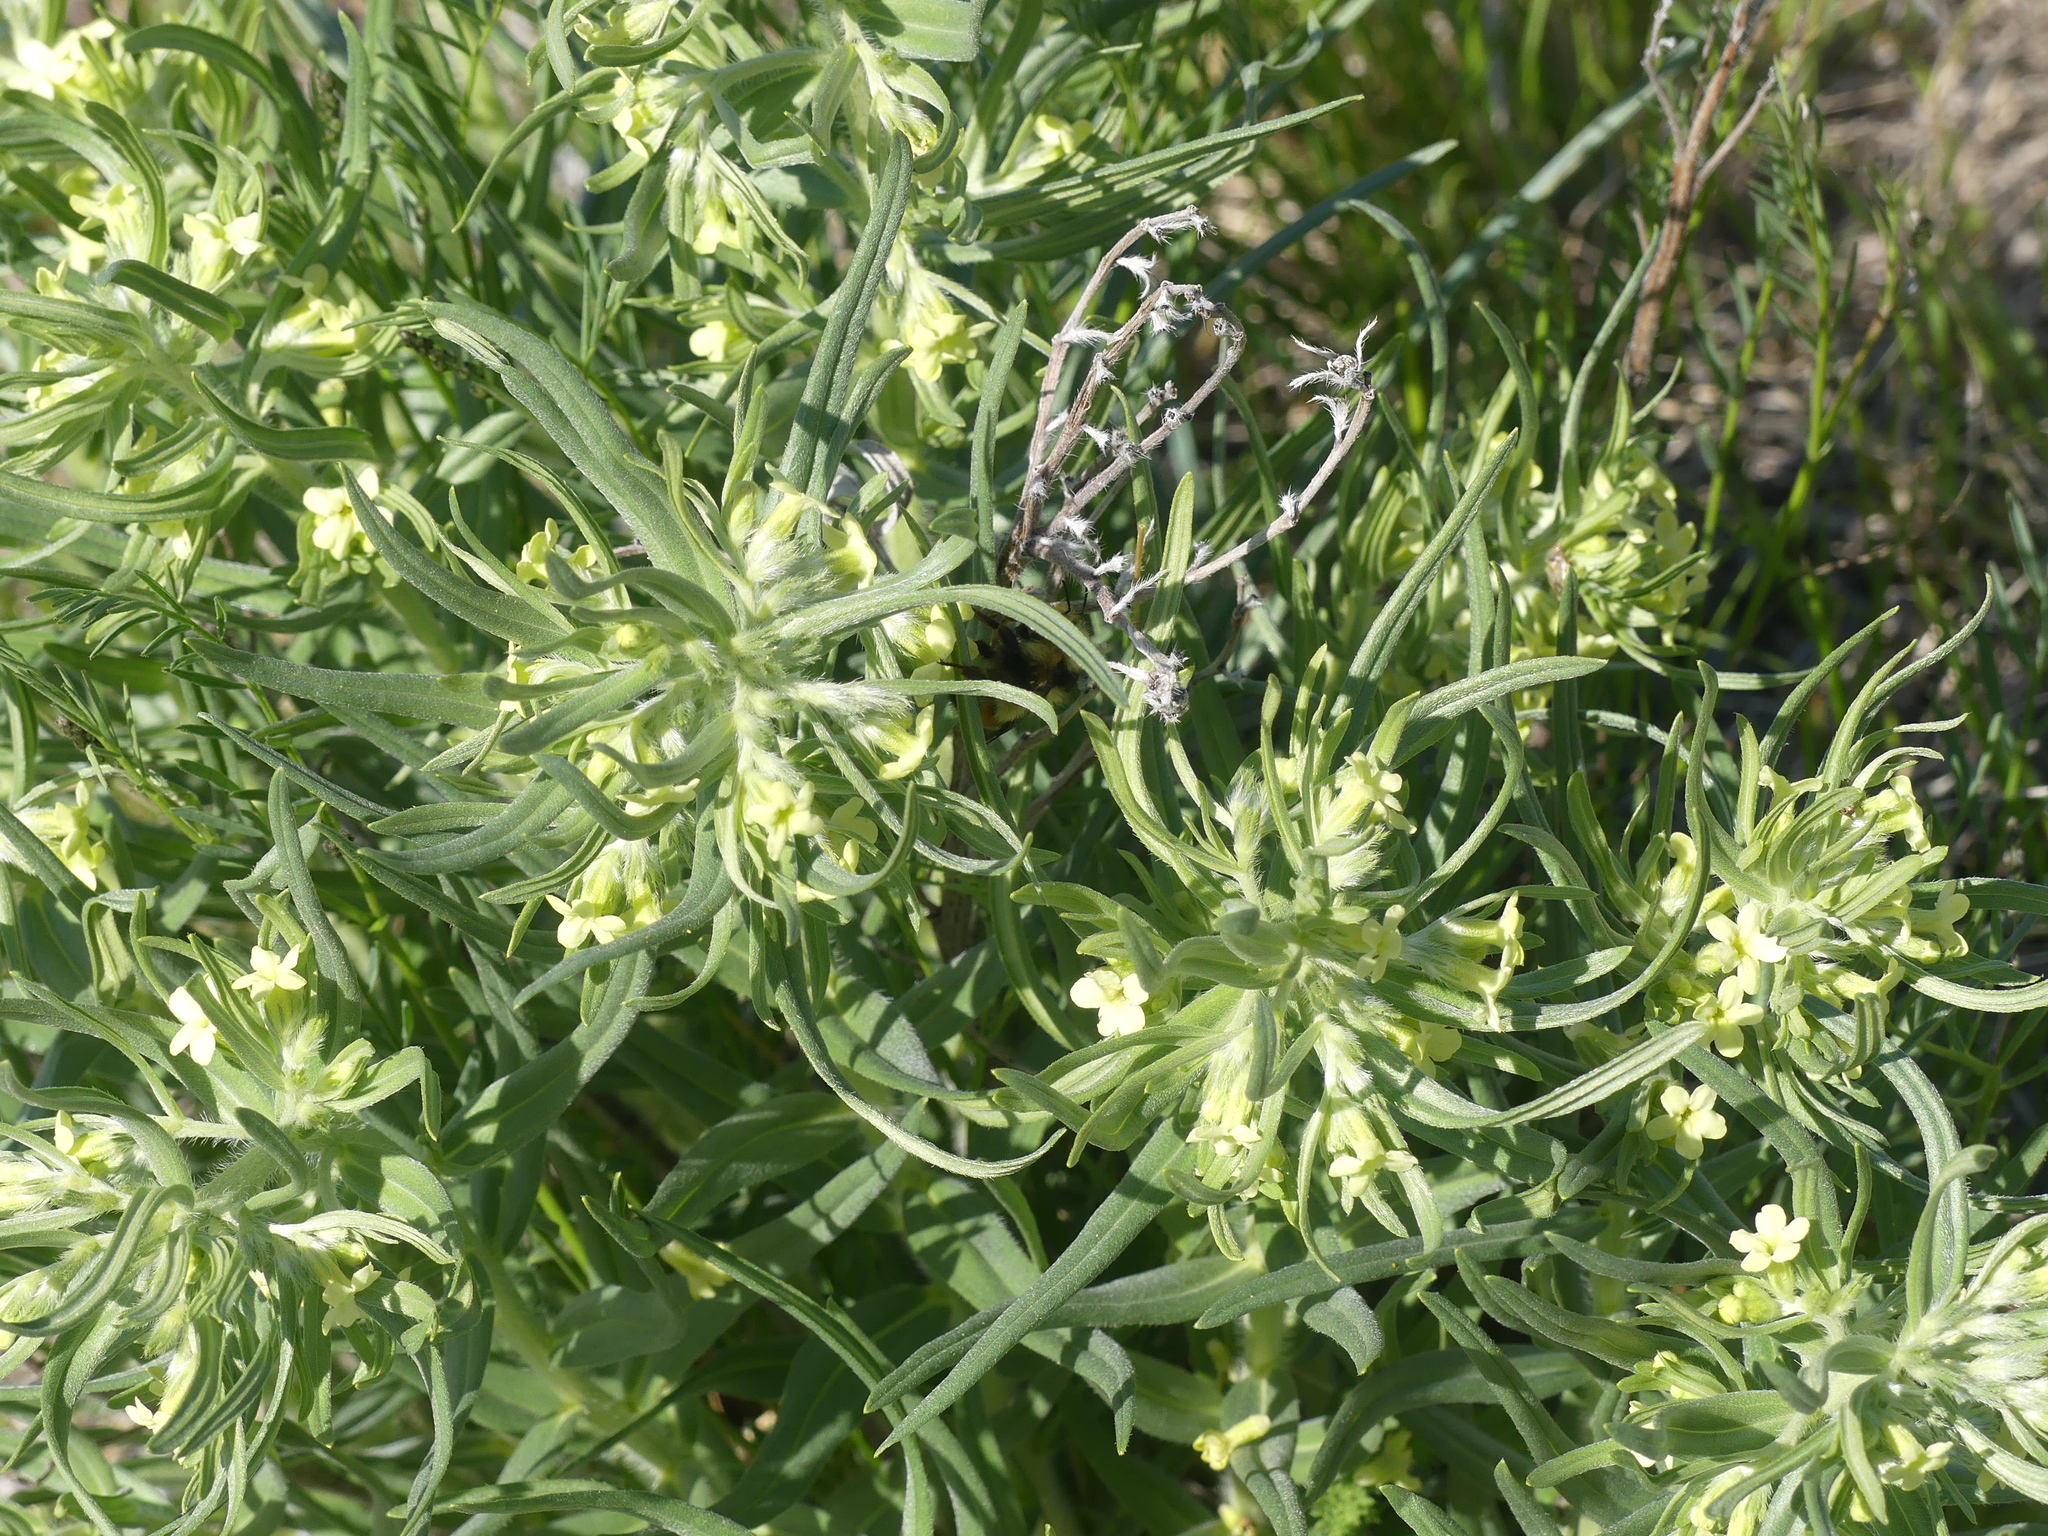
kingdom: Plantae
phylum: Tracheophyta
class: Magnoliopsida
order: Boraginales
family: Boraginaceae
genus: Lithospermum
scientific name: Lithospermum ruderale
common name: Western gromwell
